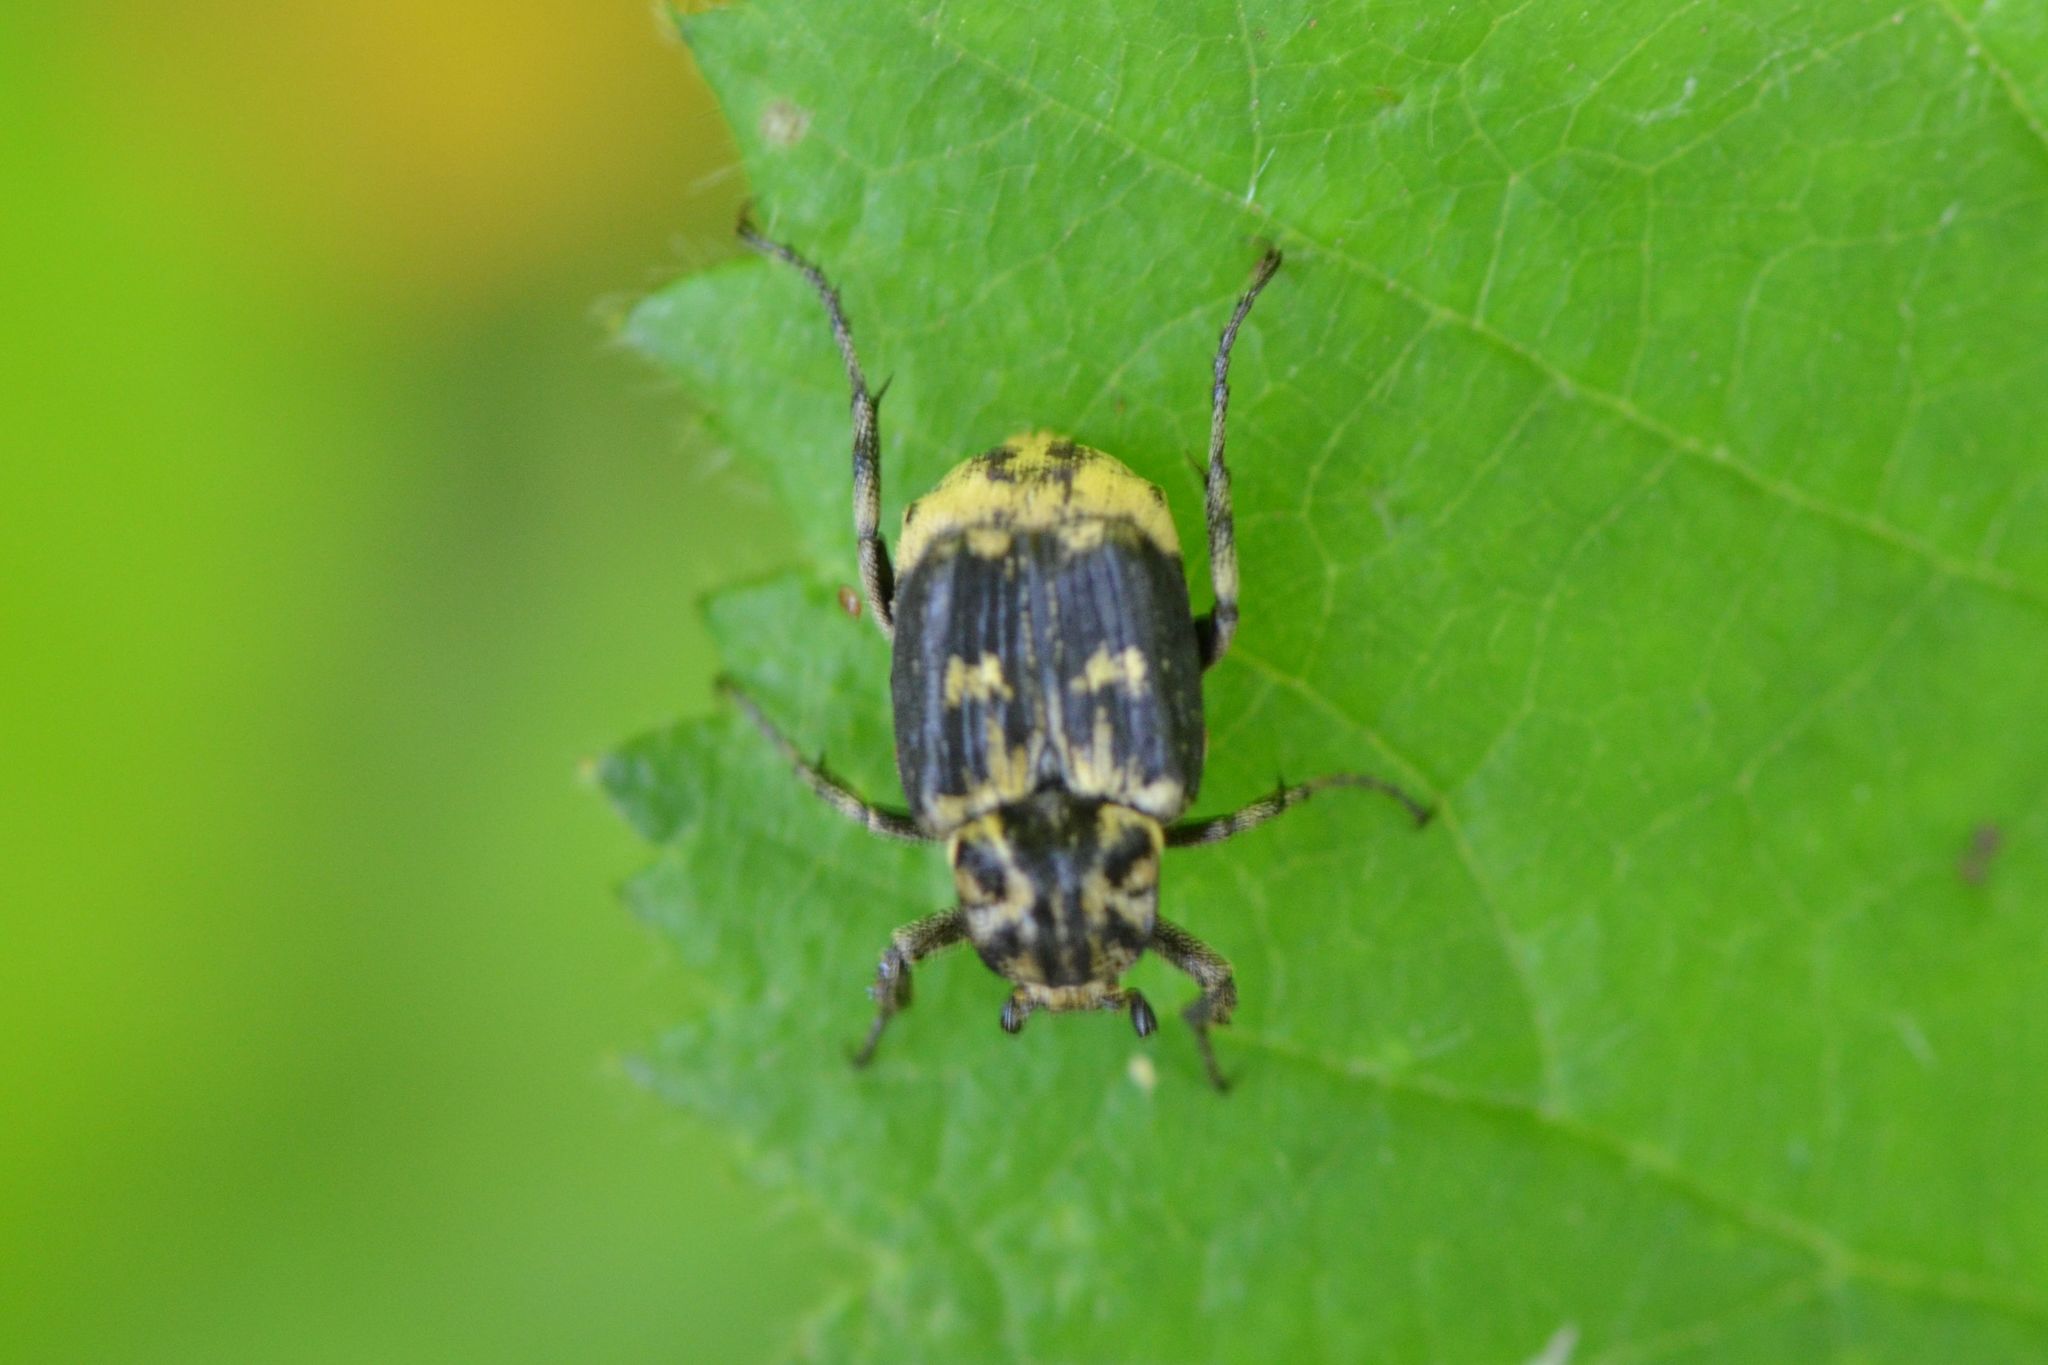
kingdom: Animalia
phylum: Arthropoda
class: Insecta
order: Coleoptera
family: Scarabaeidae
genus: Valgus
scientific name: Valgus hemipterus
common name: Bug flower chafer
